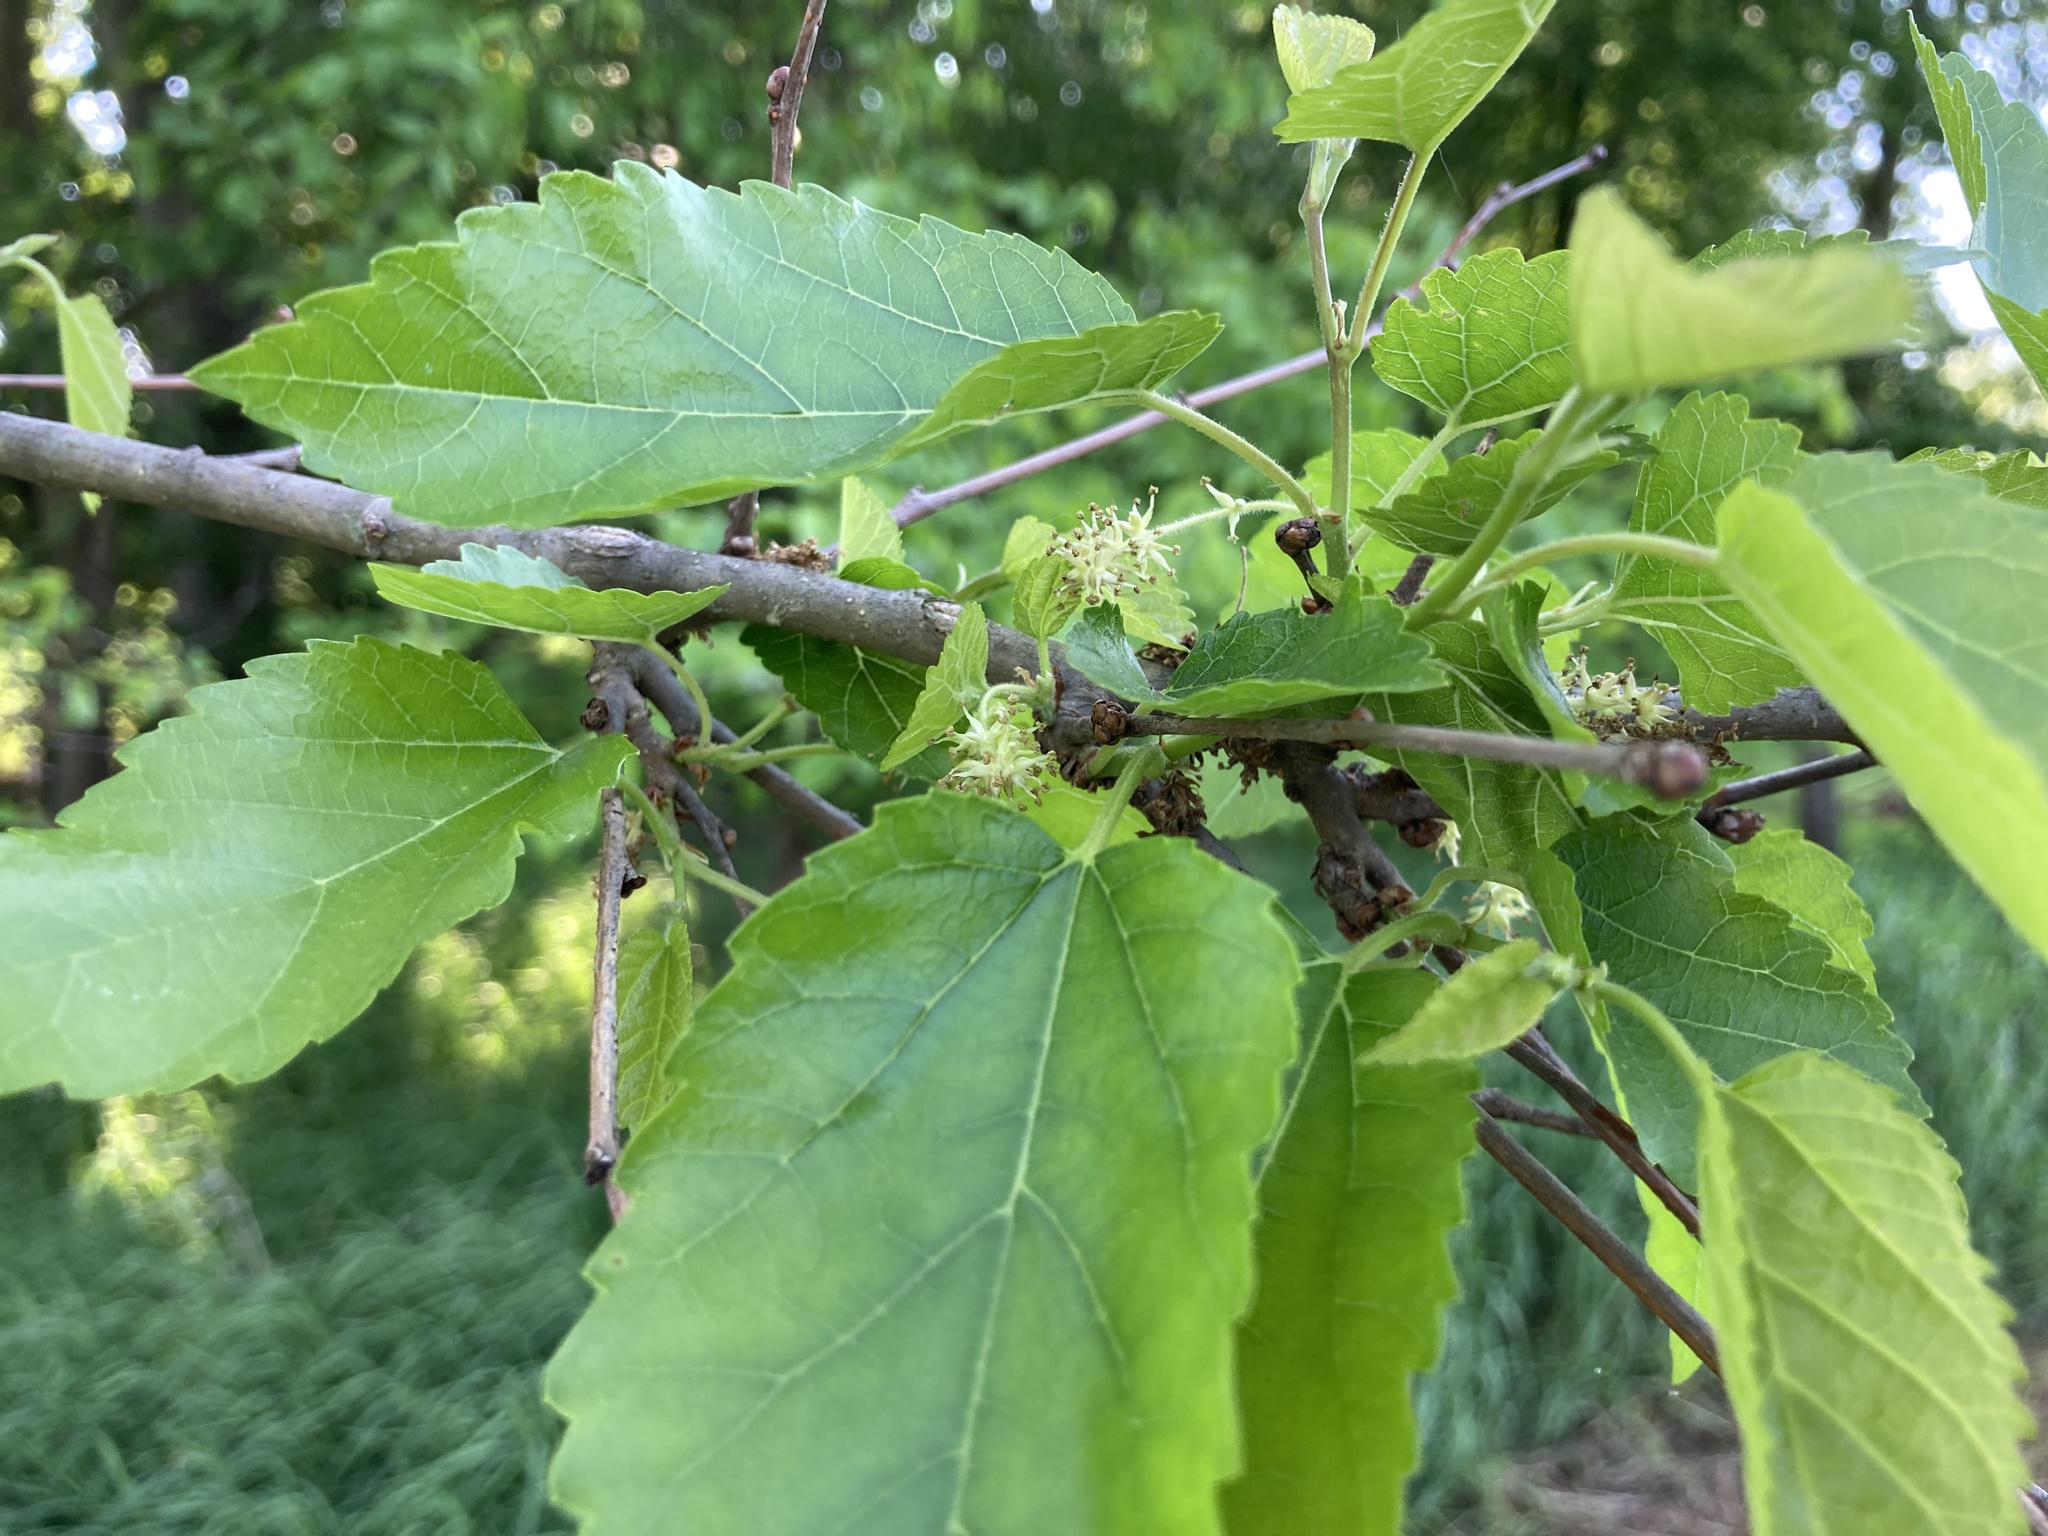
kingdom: Plantae
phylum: Tracheophyta
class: Magnoliopsida
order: Rosales
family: Moraceae
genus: Morus
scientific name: Morus alba
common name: White mulberry
